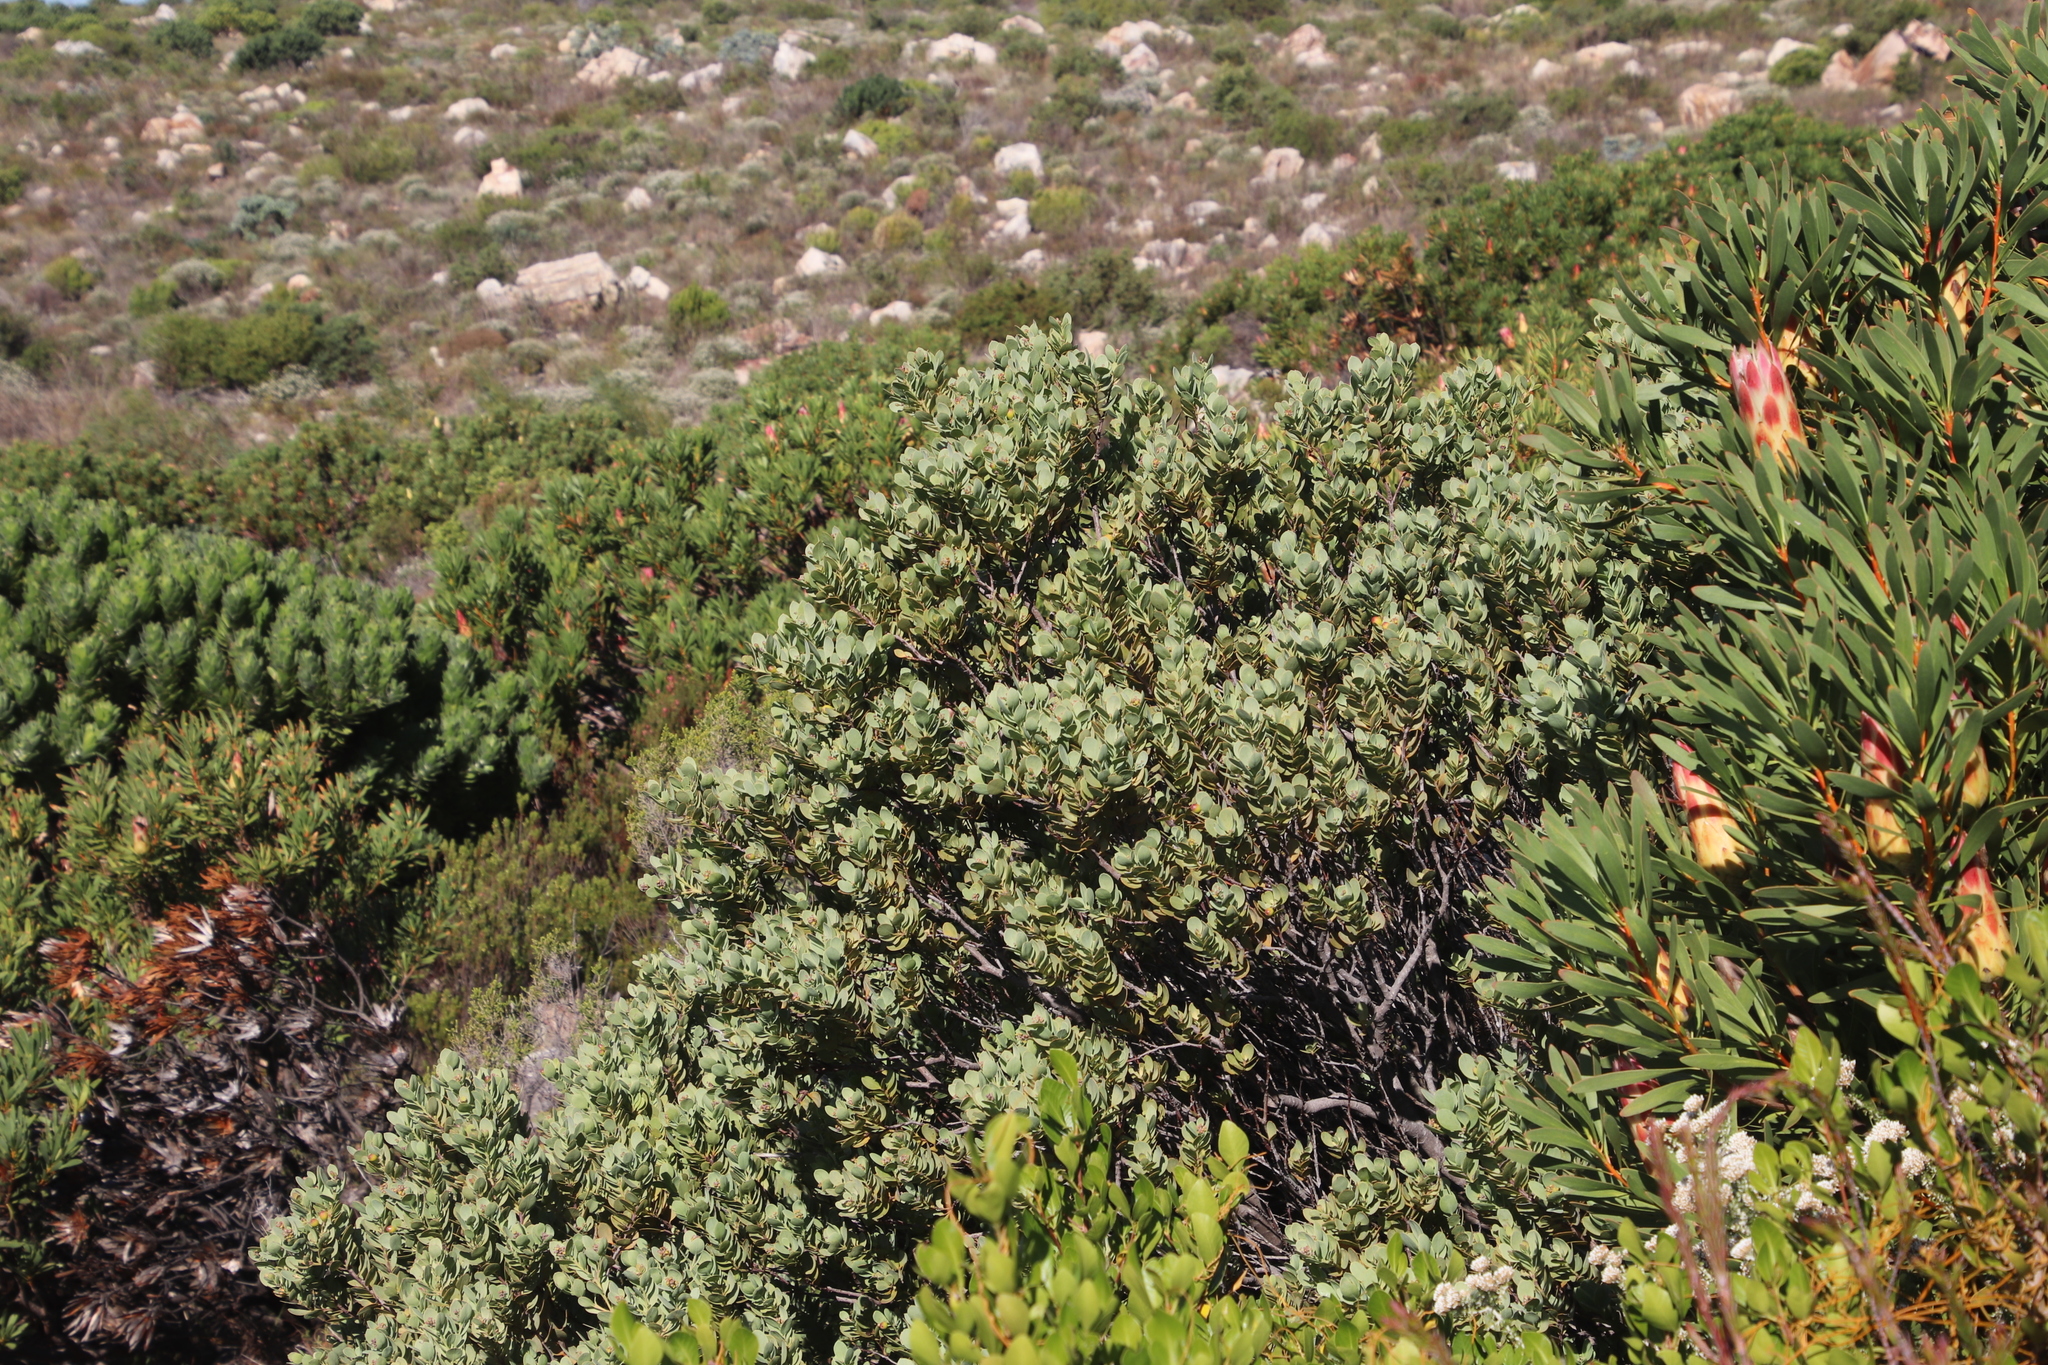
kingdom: Plantae
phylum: Tracheophyta
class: Magnoliopsida
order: Santalales
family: Santalaceae
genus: Osyris
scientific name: Osyris compressa
